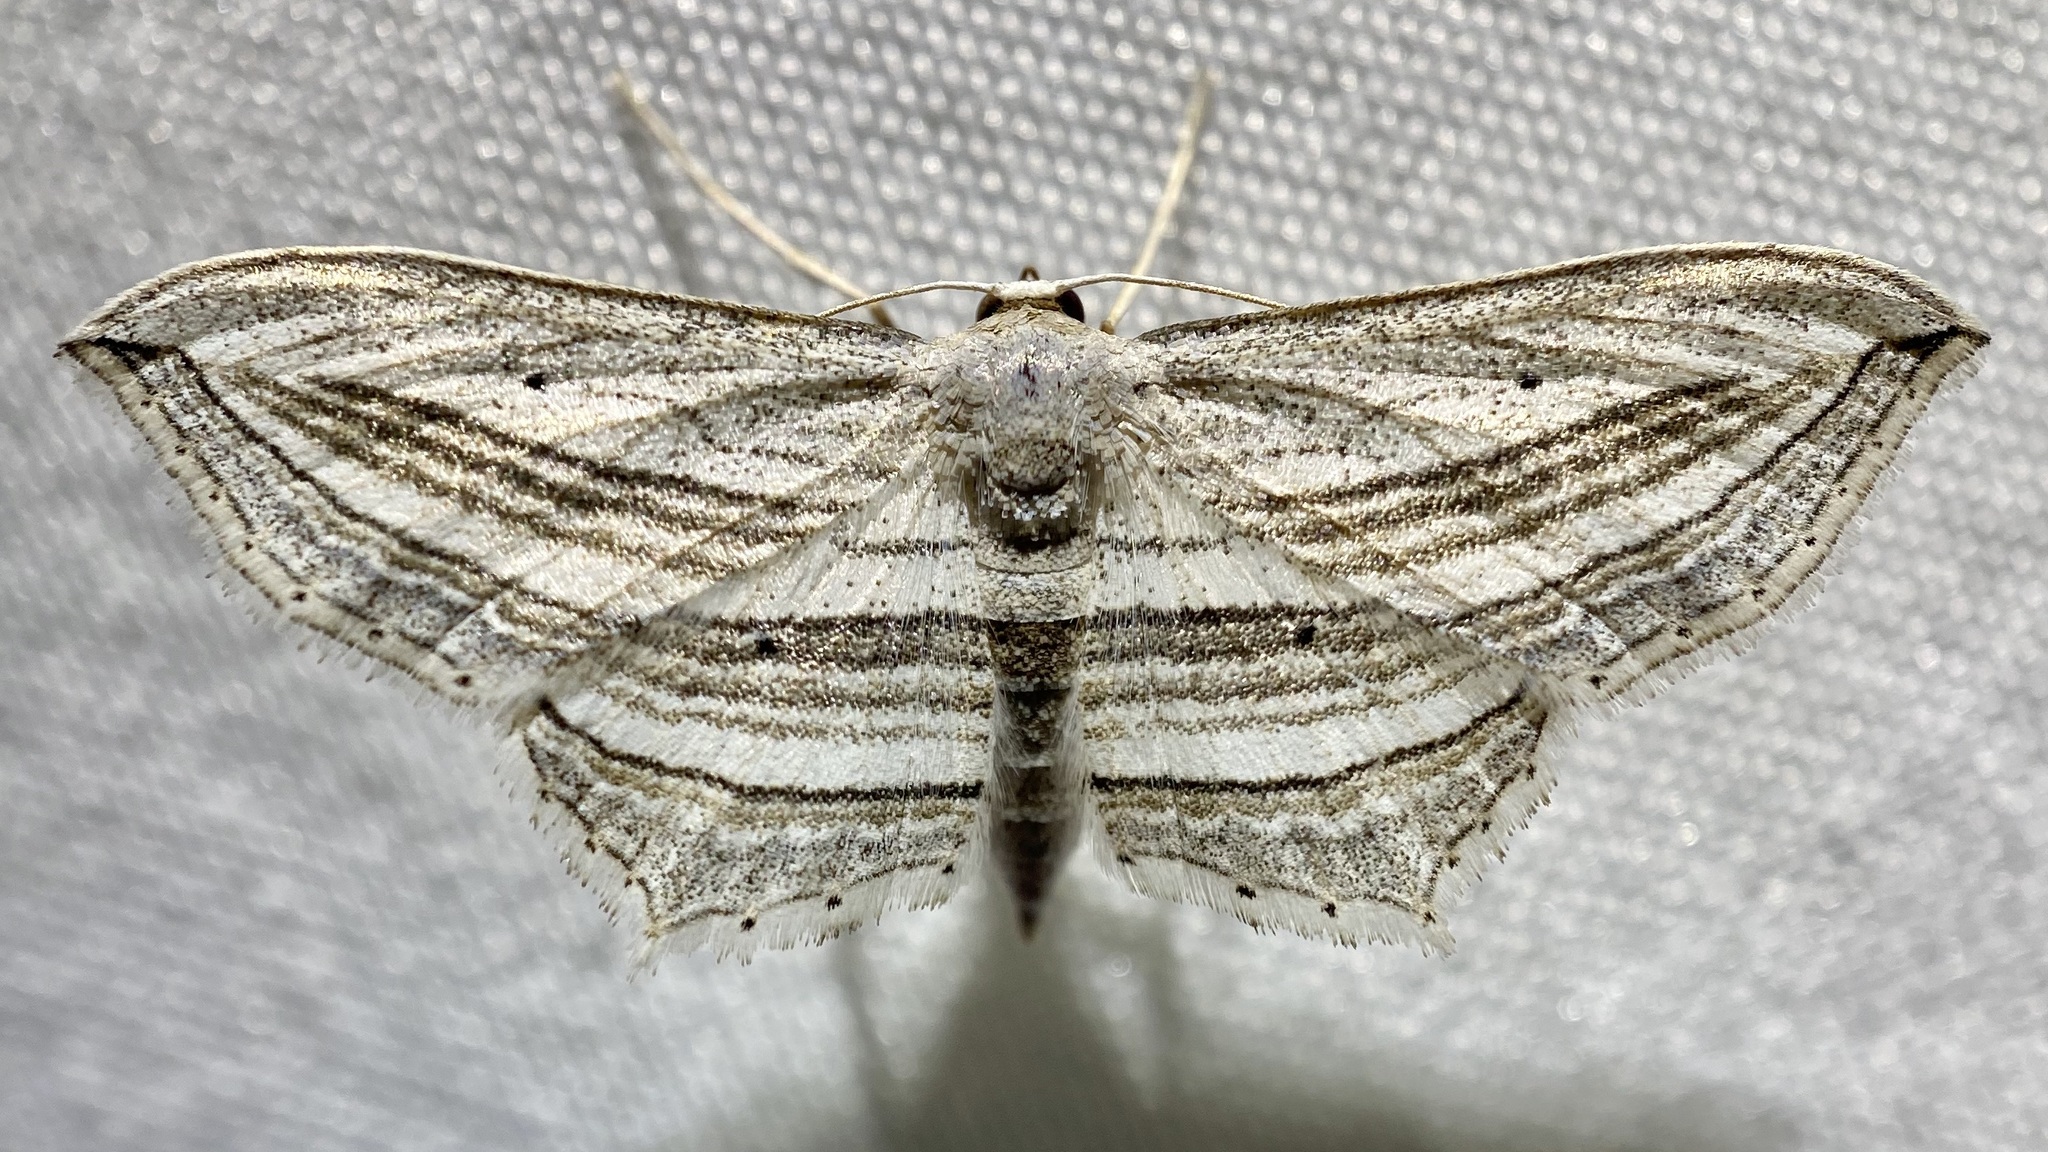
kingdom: Animalia
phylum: Arthropoda
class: Insecta
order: Lepidoptera
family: Geometridae
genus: Arcobara
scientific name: Arcobara multilineata
